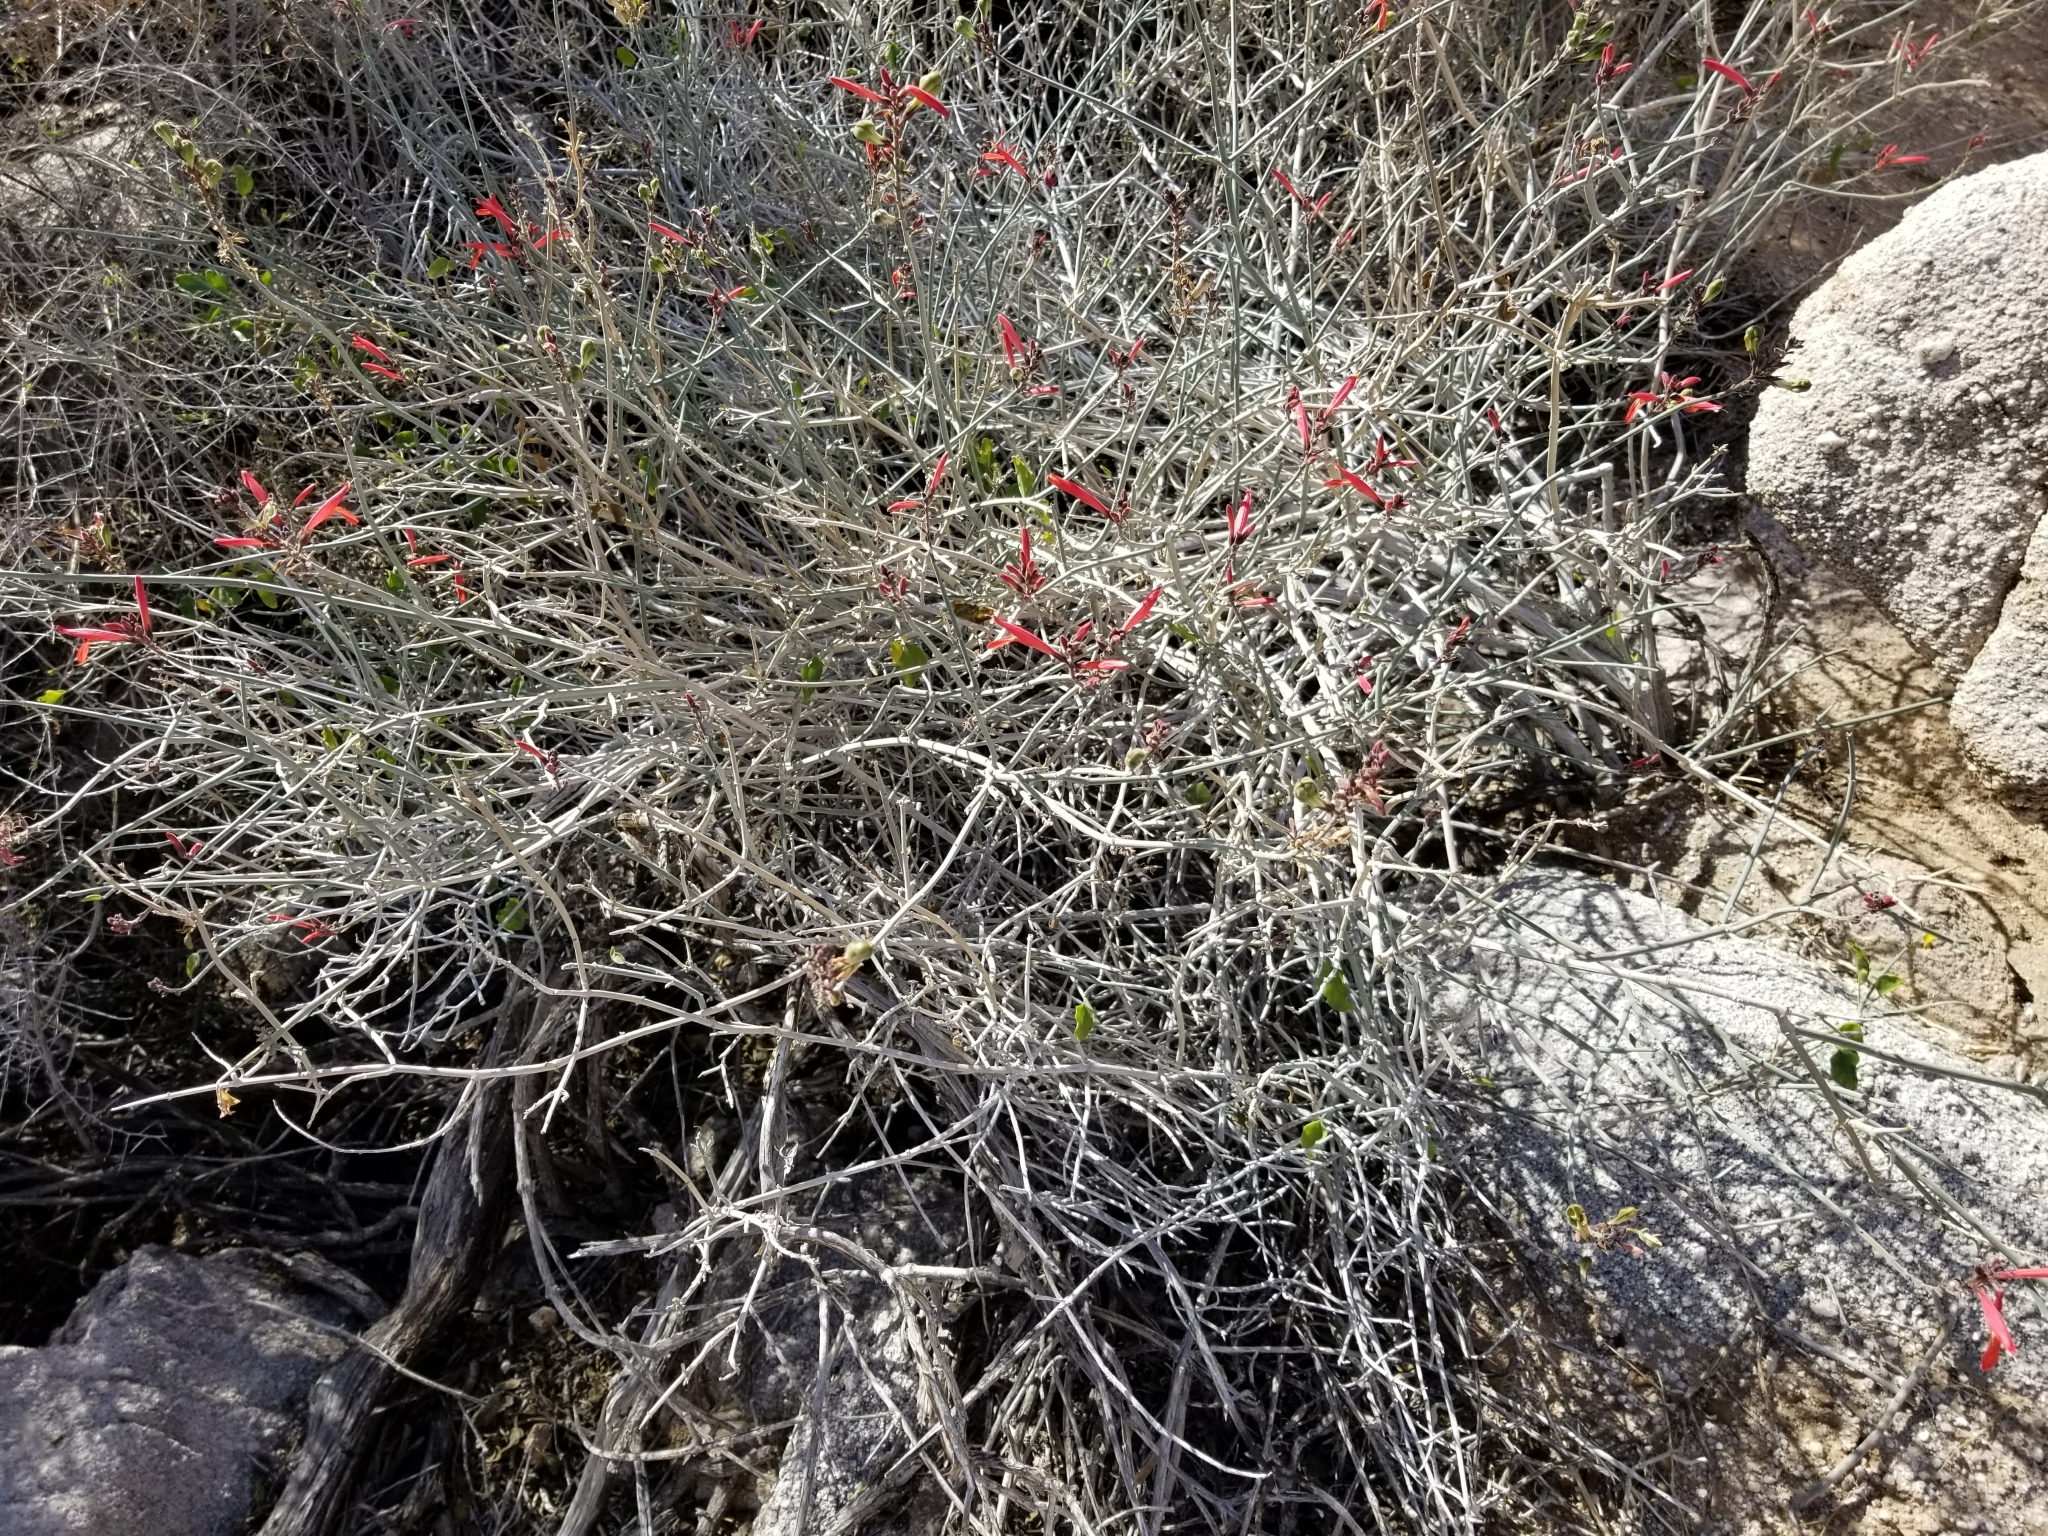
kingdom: Plantae
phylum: Tracheophyta
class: Magnoliopsida
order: Lamiales
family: Acanthaceae
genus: Justicia
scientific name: Justicia californica
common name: Chuparosa-honeysuckle
